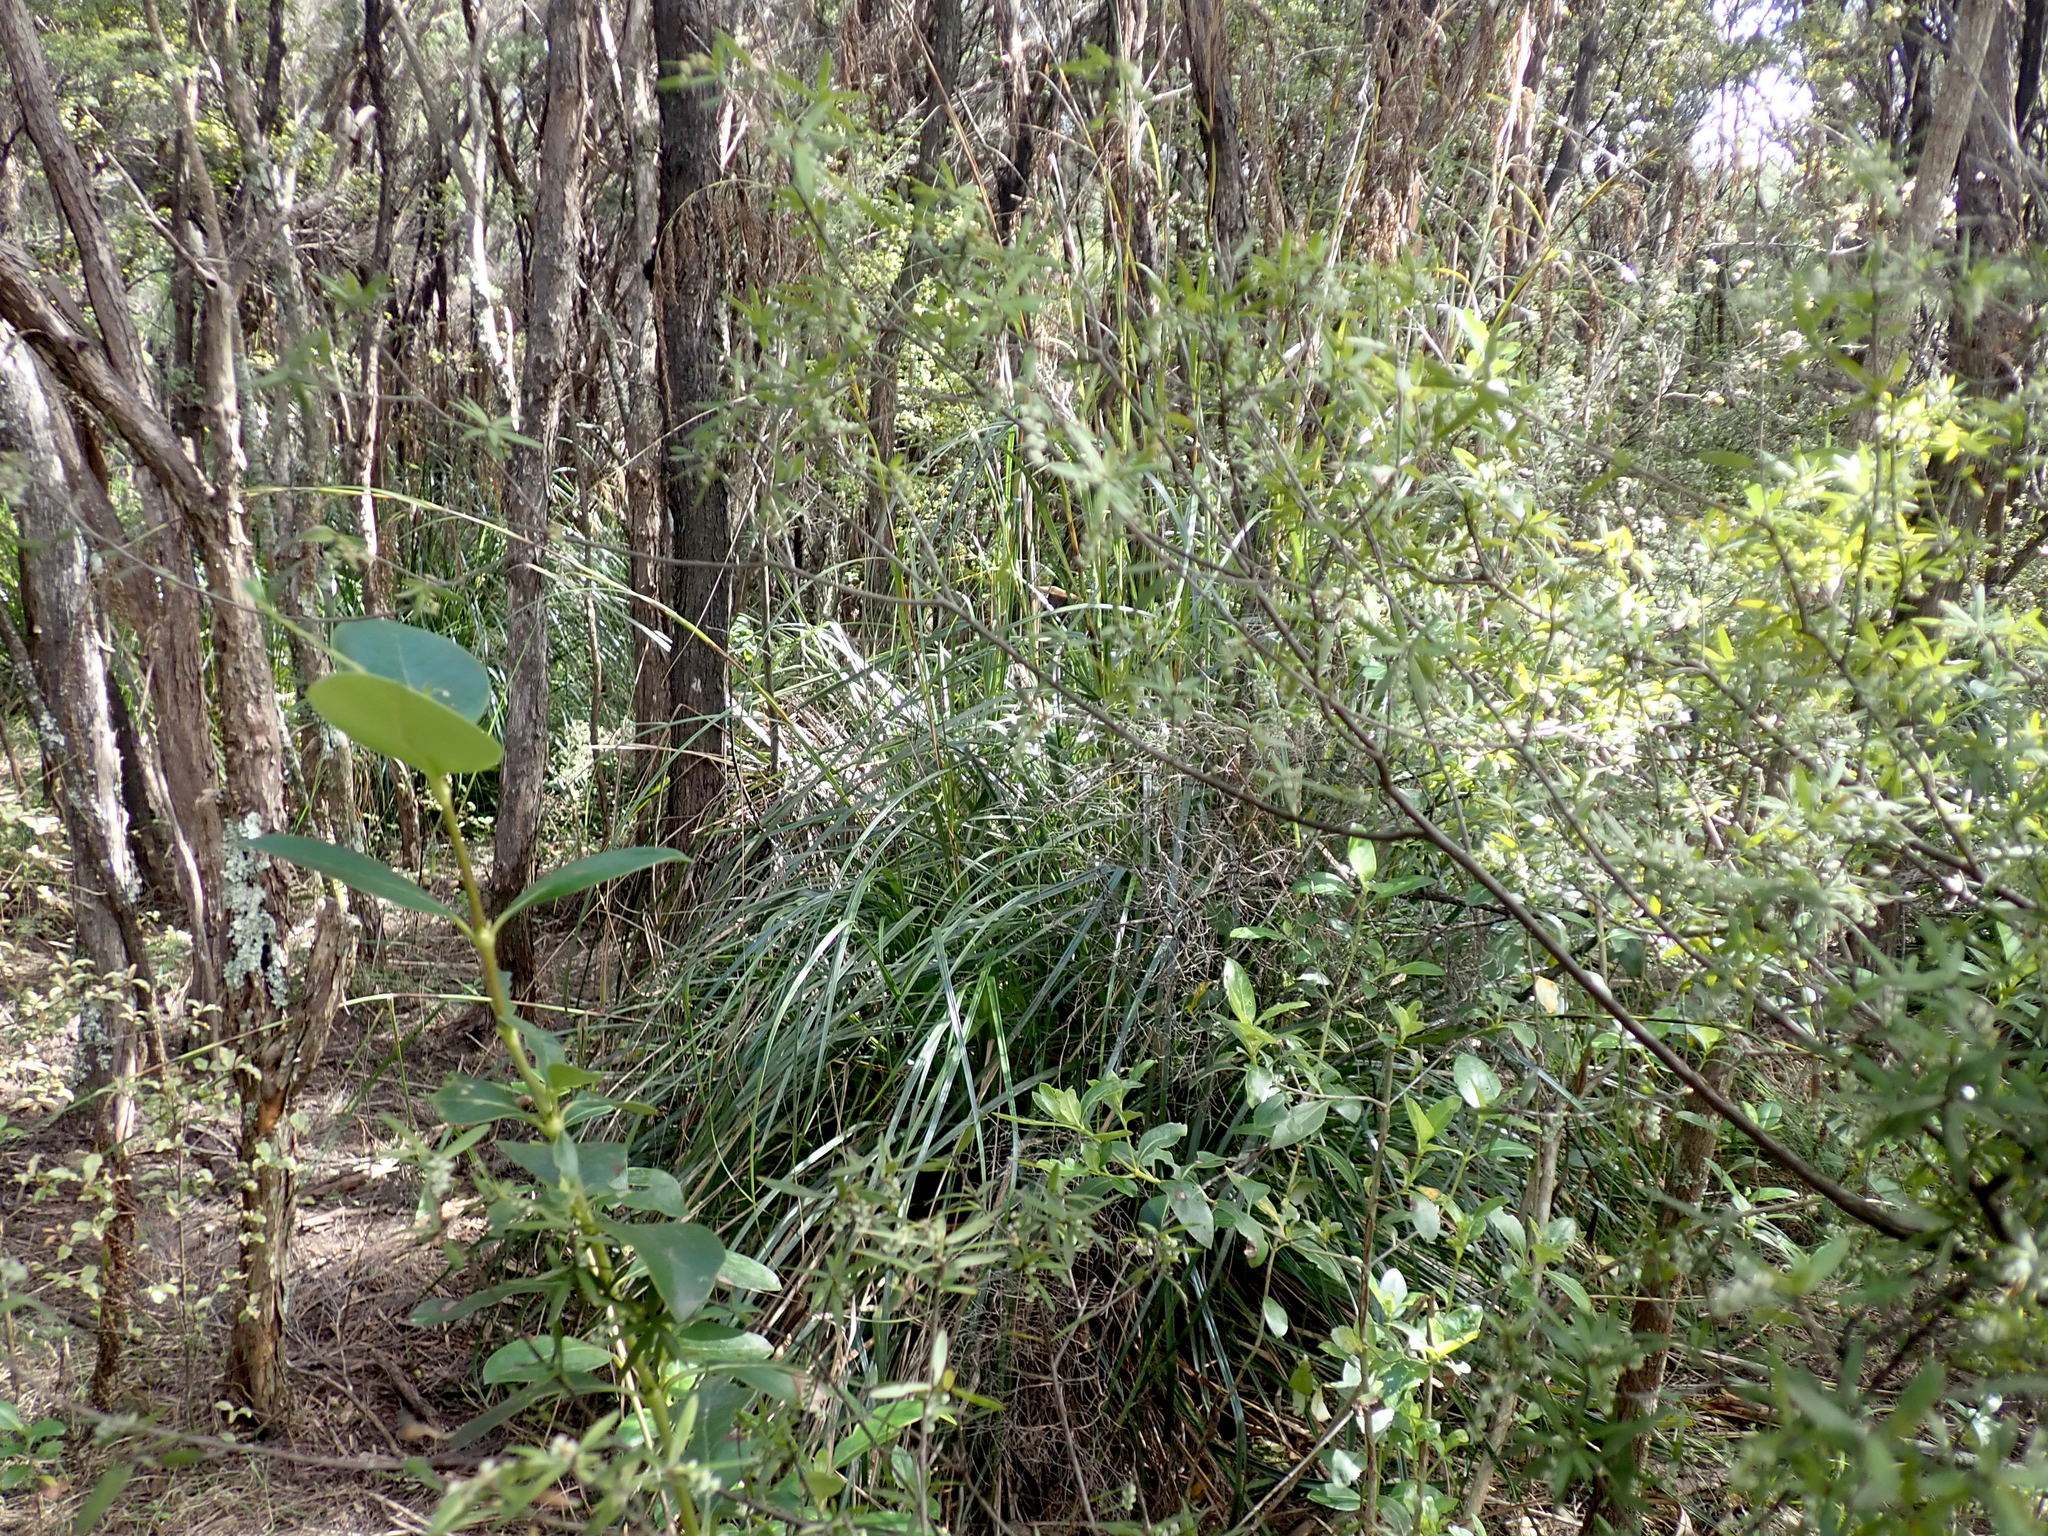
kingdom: Plantae
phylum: Tracheophyta
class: Liliopsida
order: Poales
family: Cyperaceae
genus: Gahnia
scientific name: Gahnia xanthocarpa
